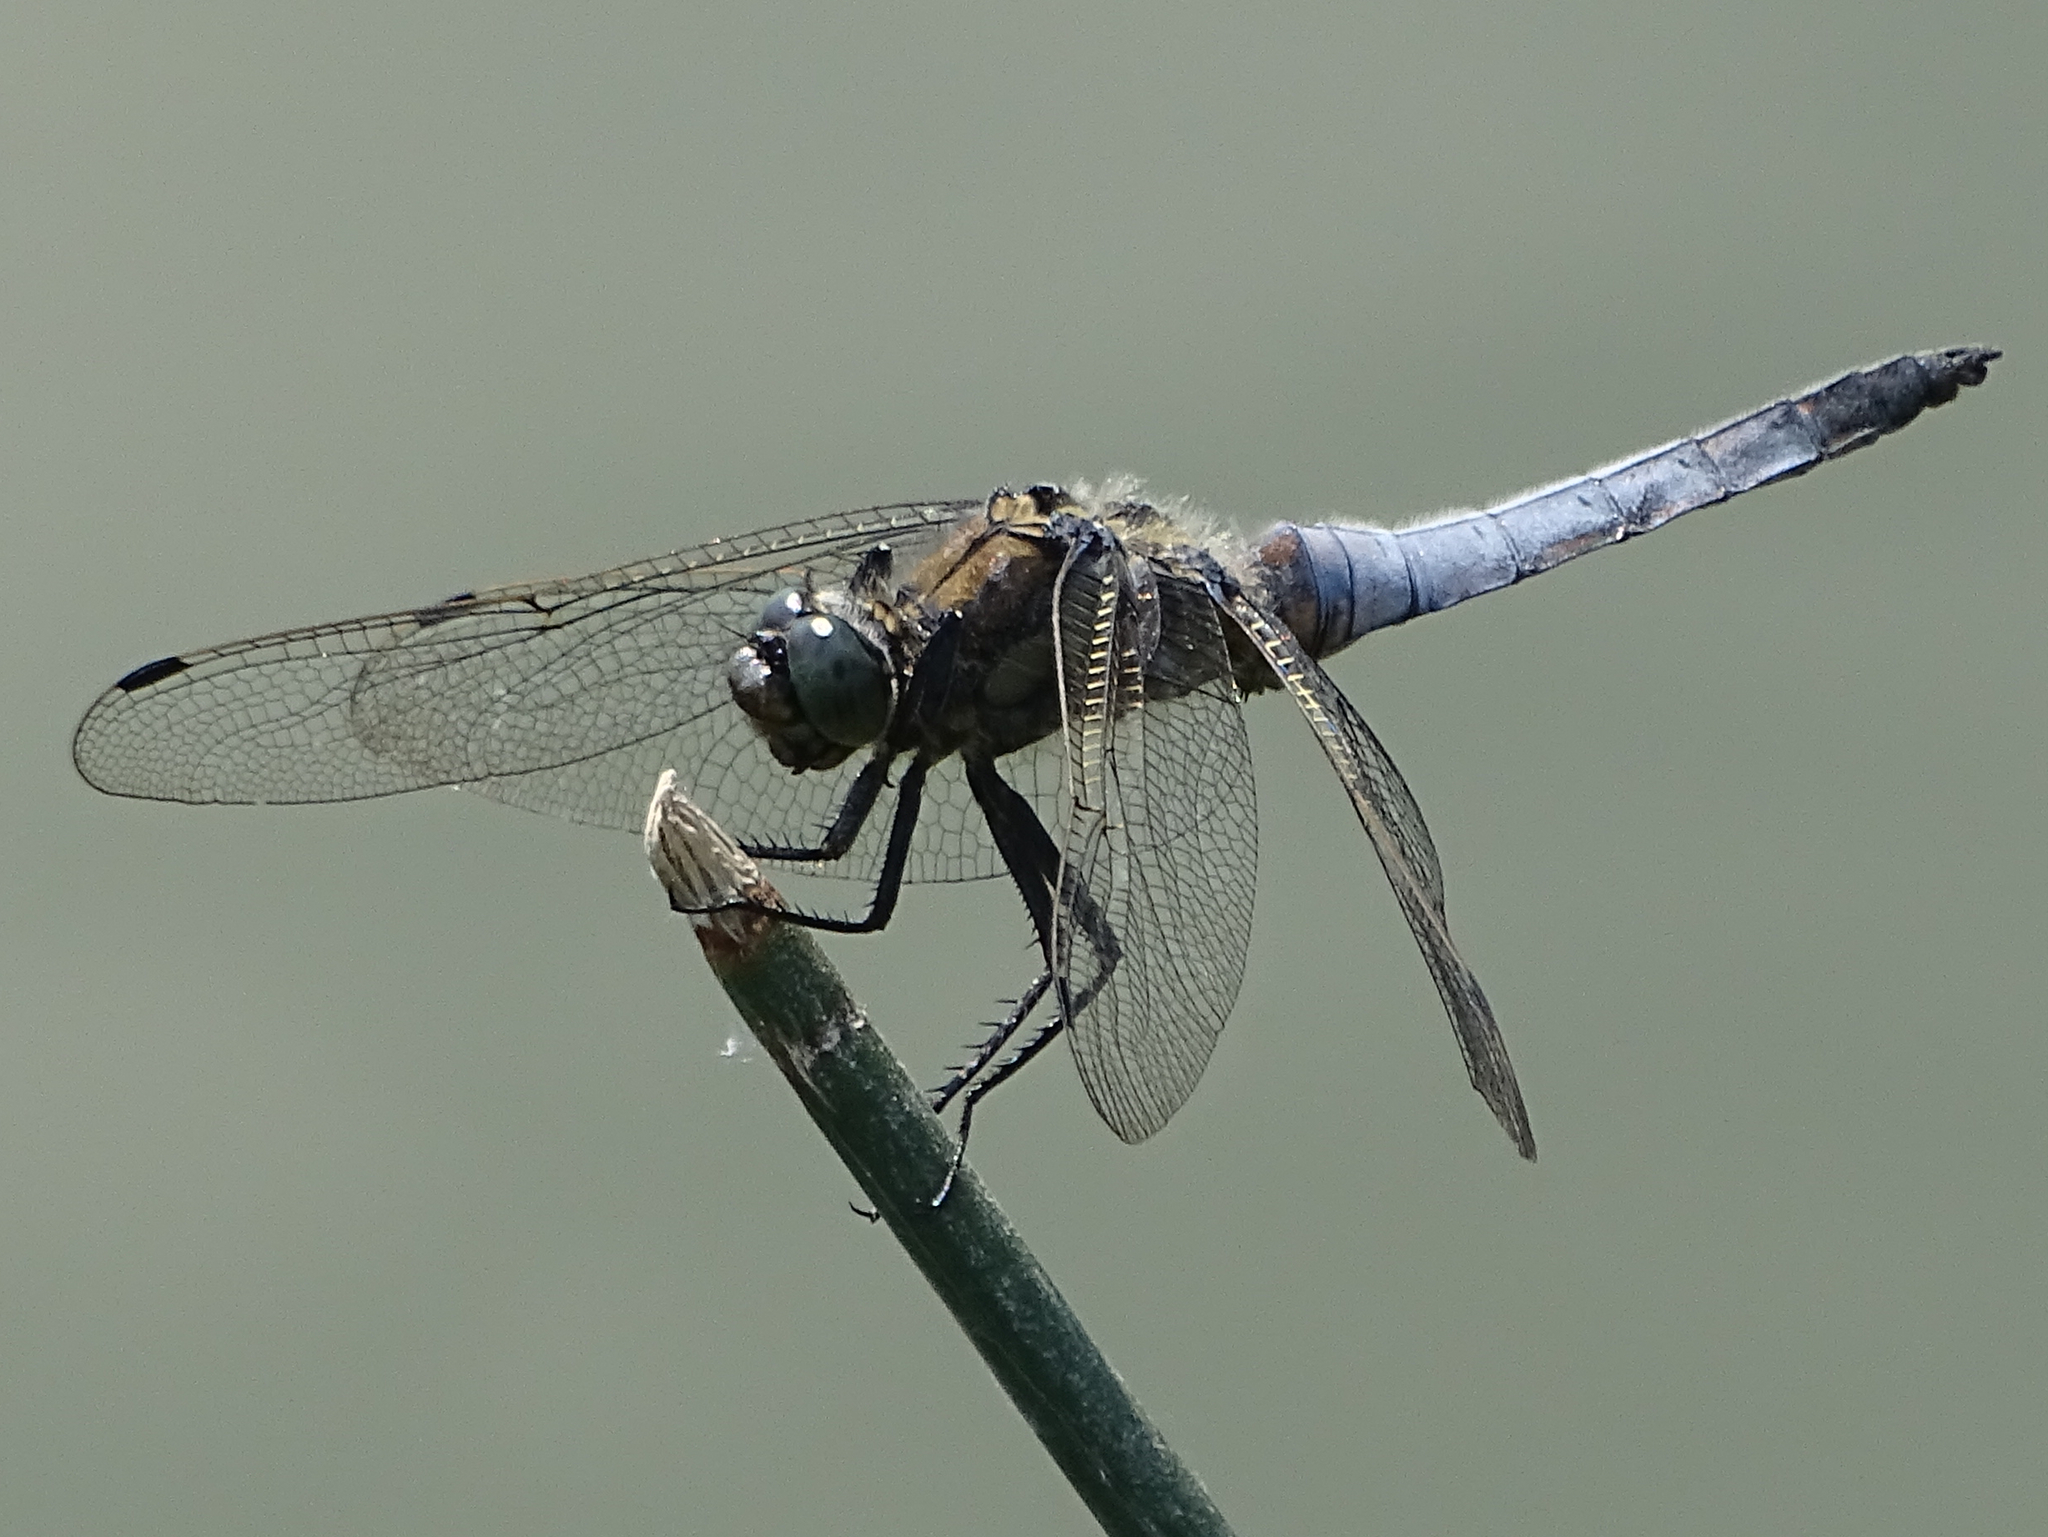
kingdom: Animalia
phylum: Arthropoda
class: Insecta
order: Odonata
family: Libellulidae
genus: Orthetrum
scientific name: Orthetrum cancellatum
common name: Black-tailed skimmer
